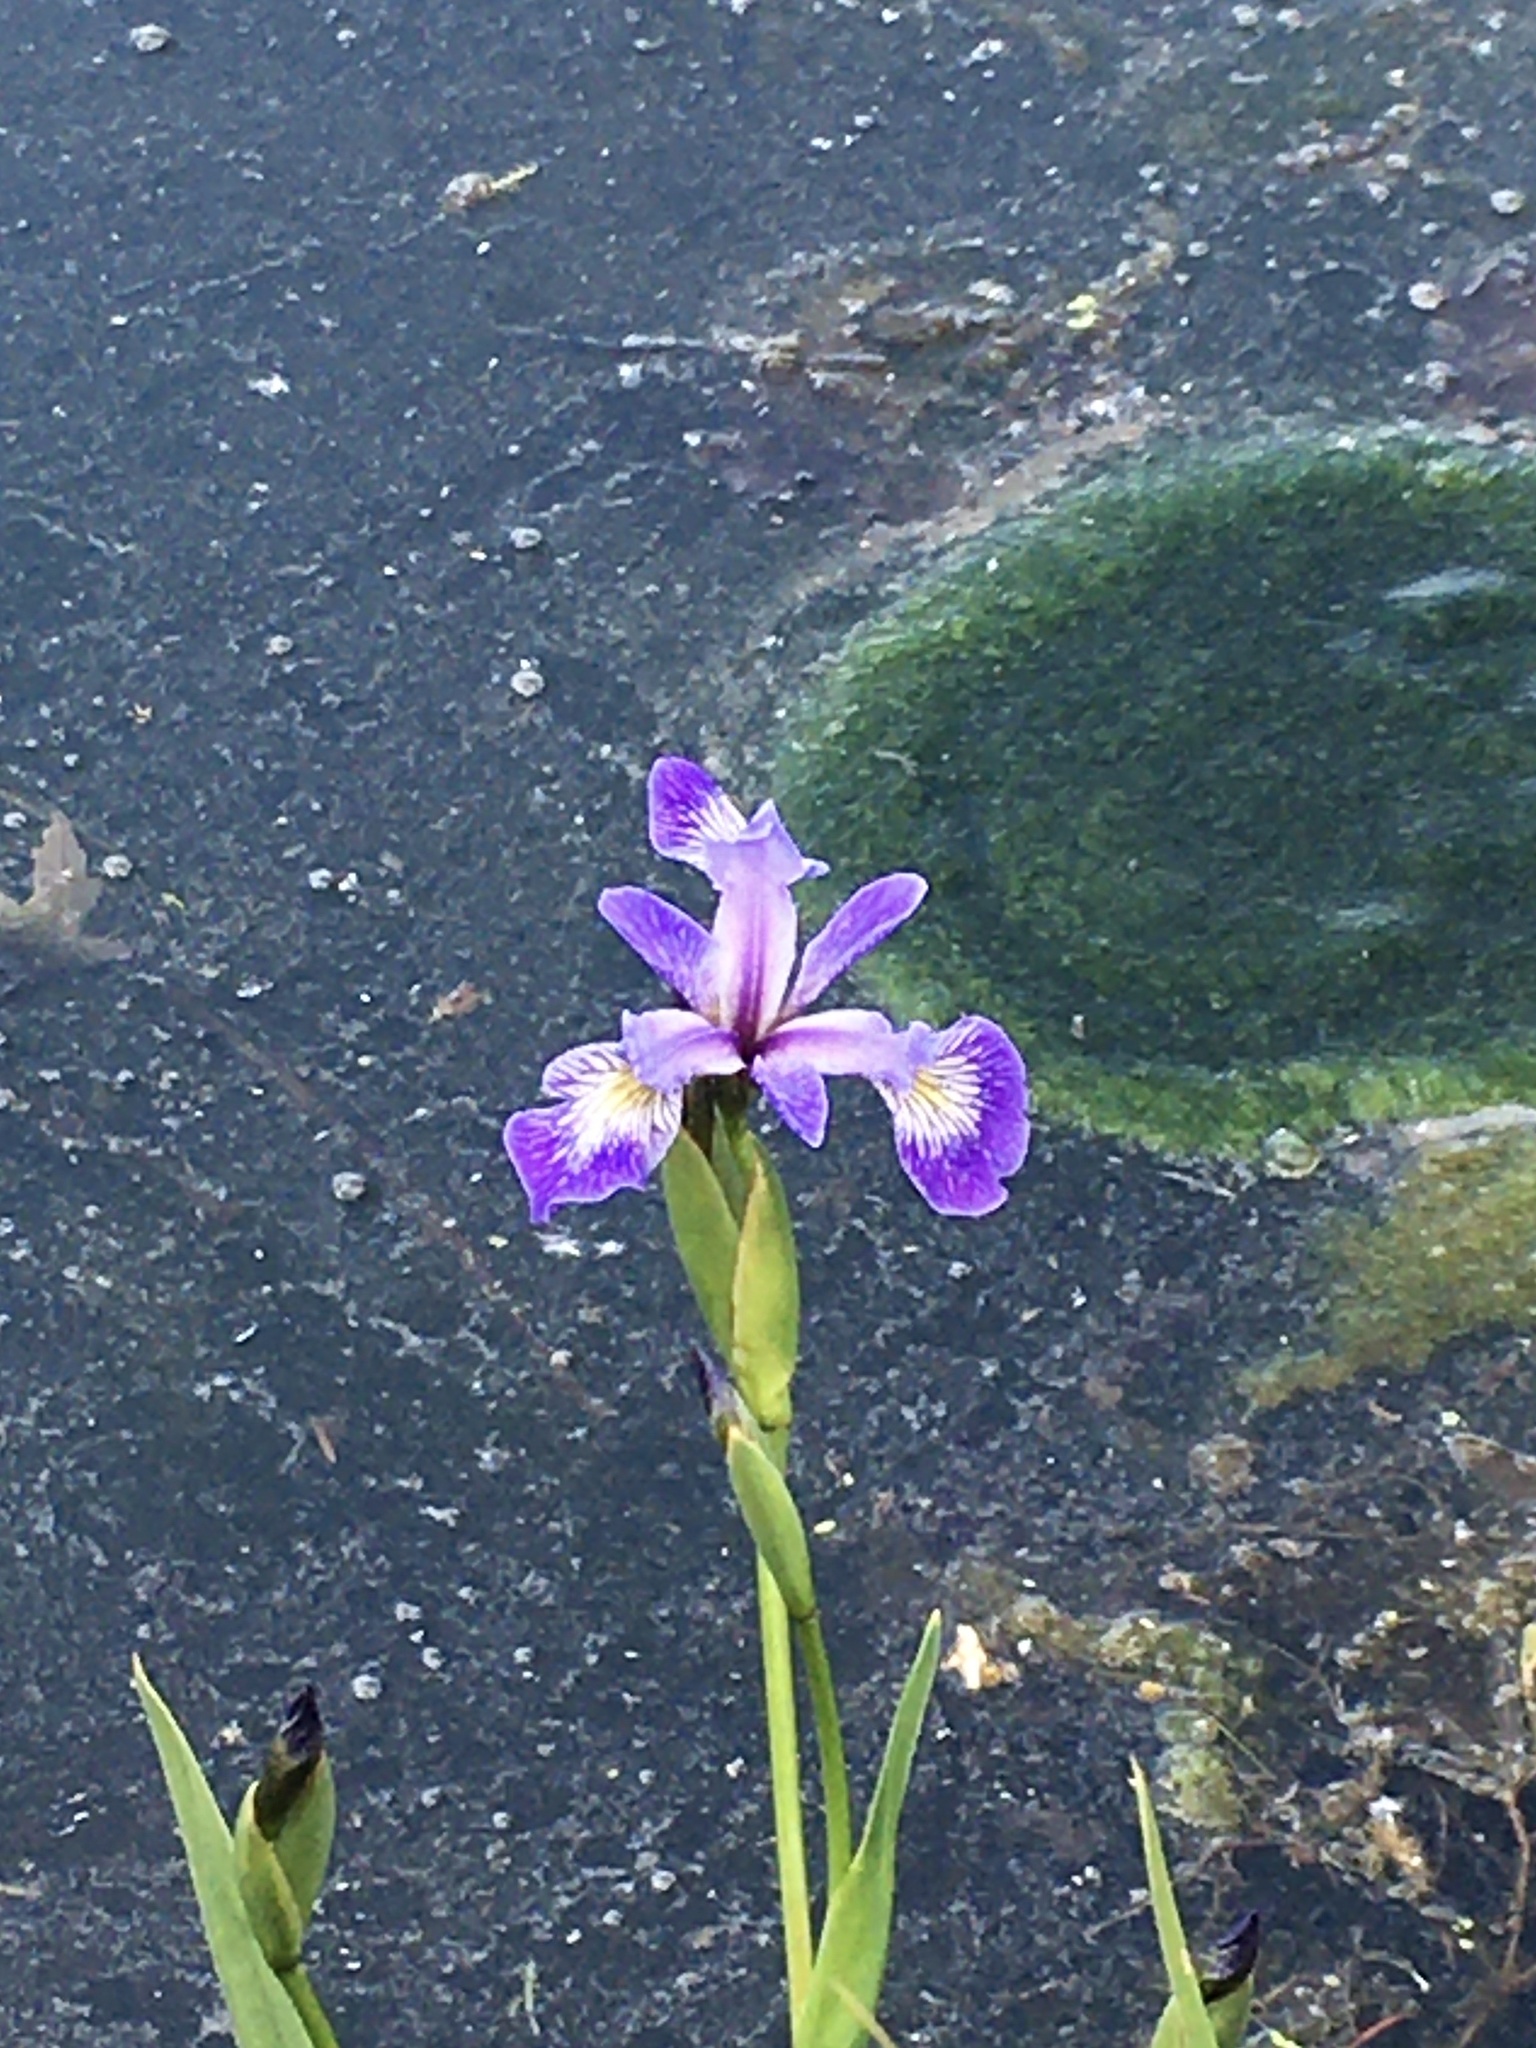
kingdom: Plantae
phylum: Tracheophyta
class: Liliopsida
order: Asparagales
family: Iridaceae
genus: Iris
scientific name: Iris versicolor
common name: Purple iris
